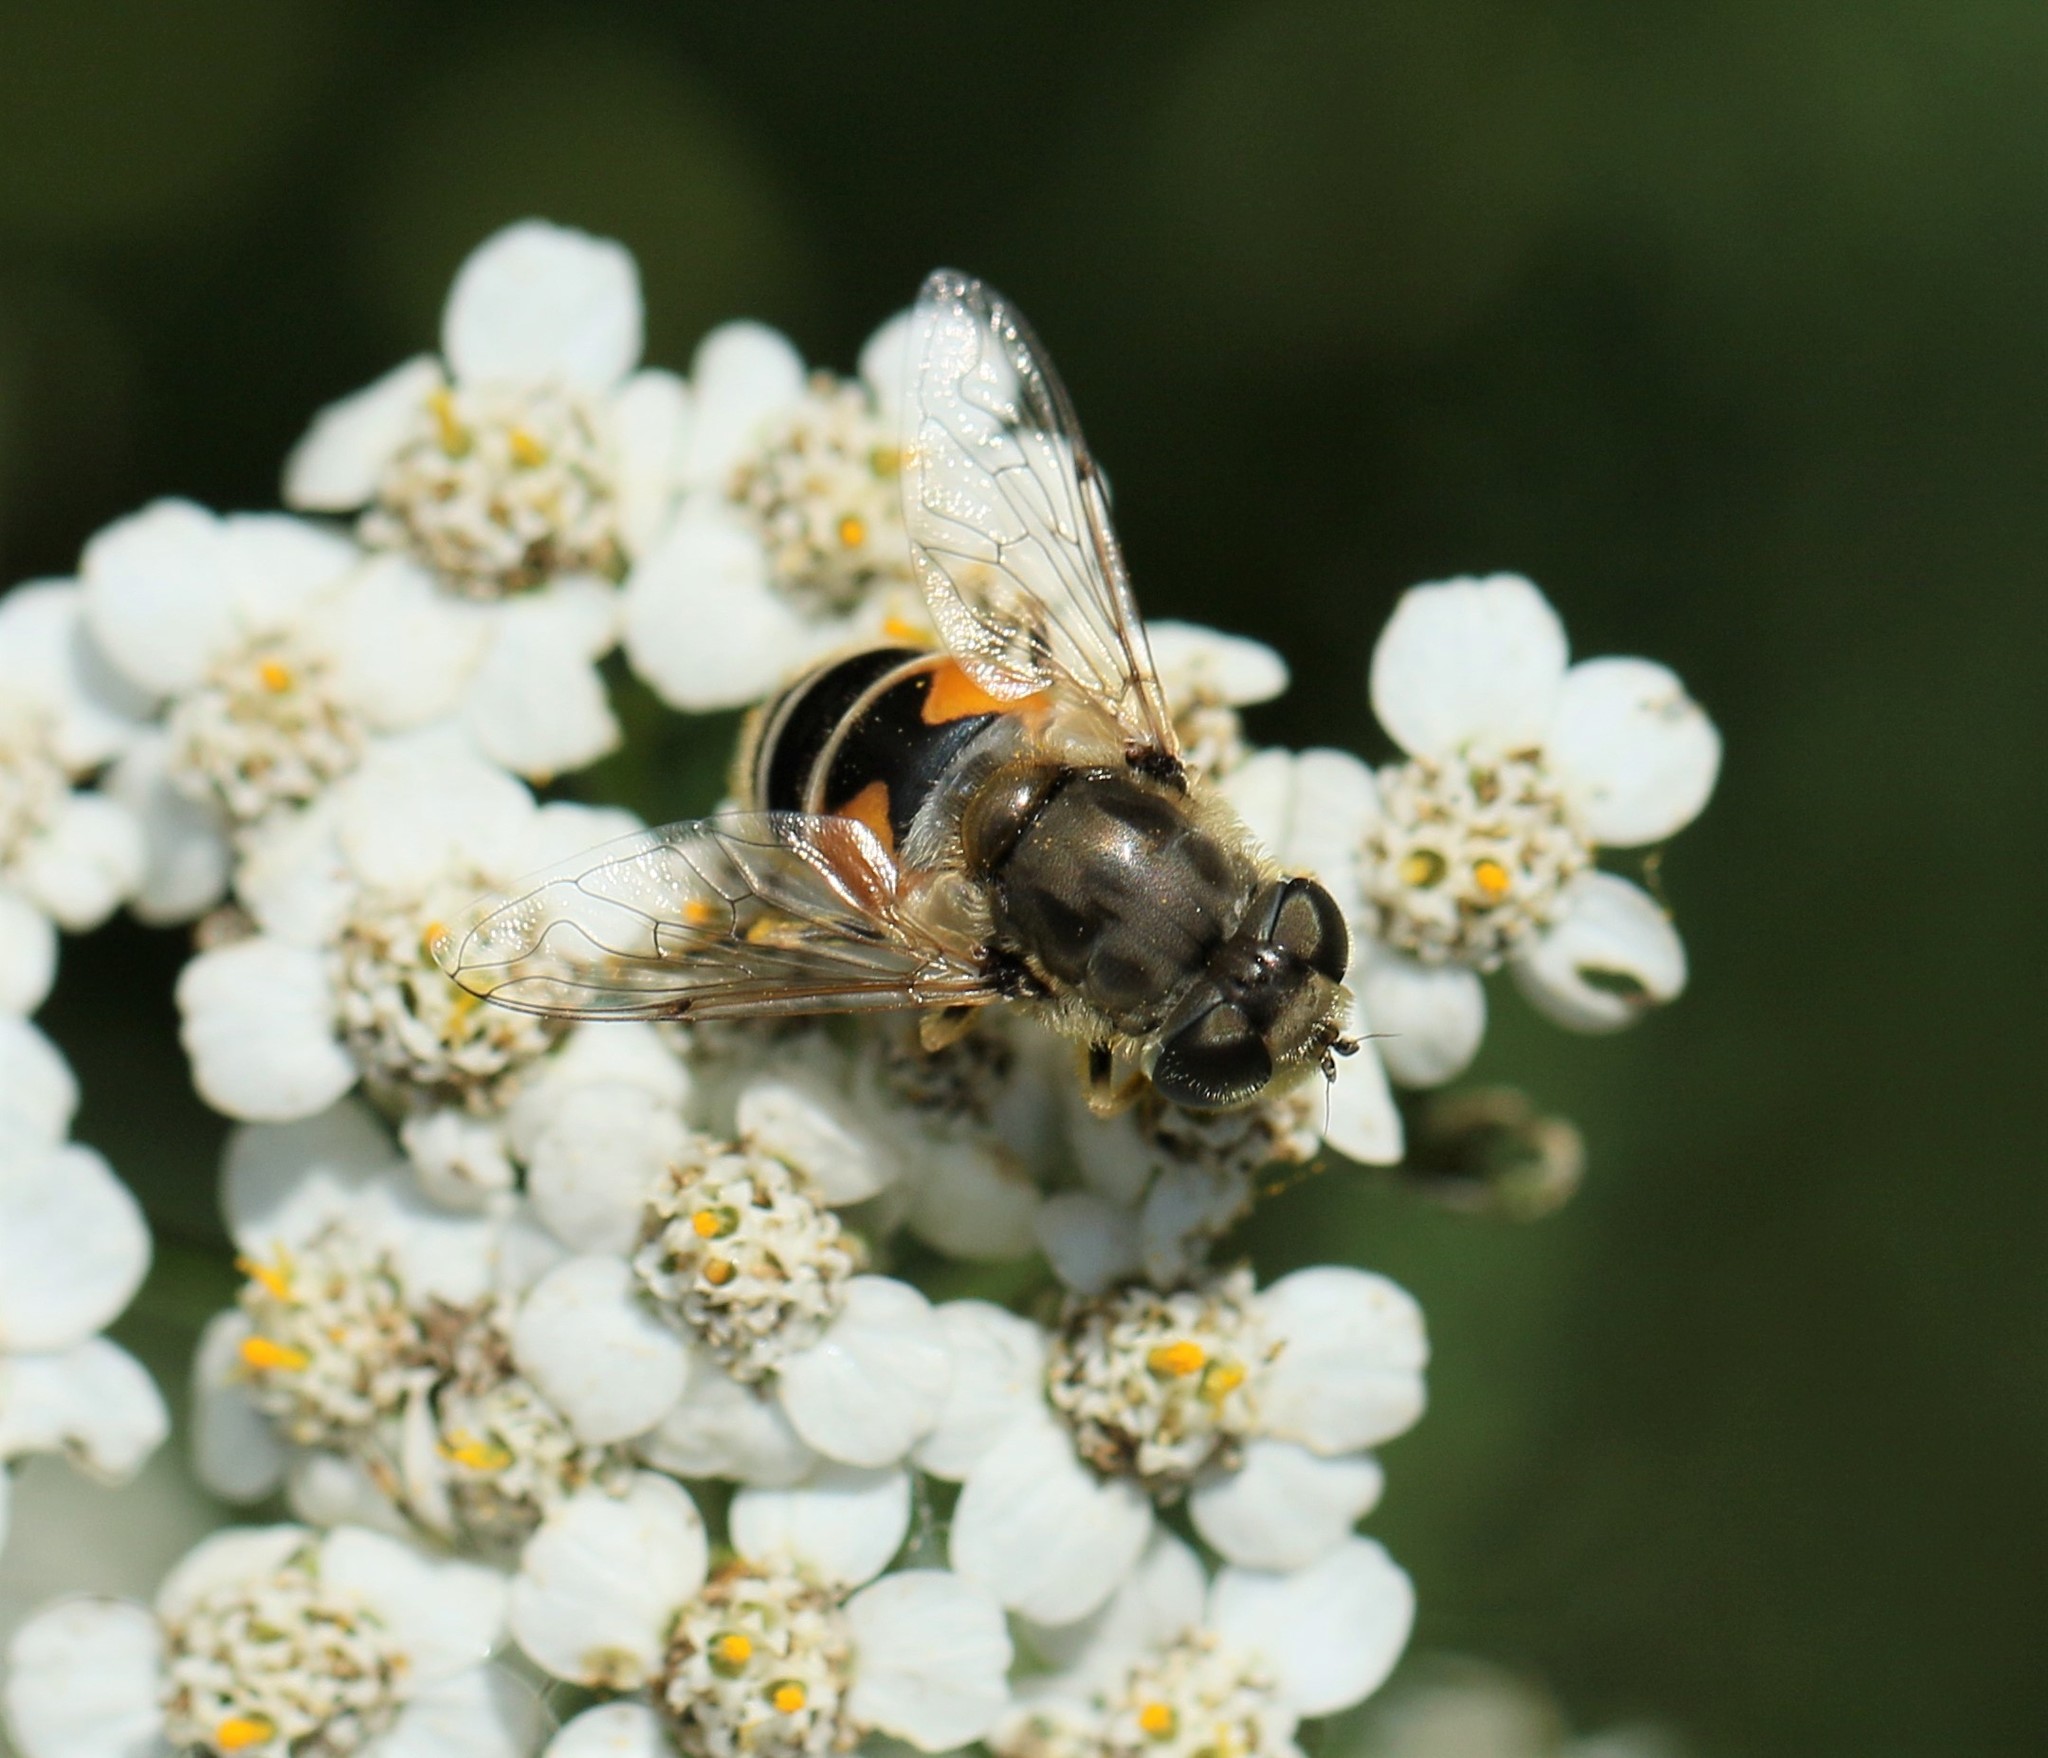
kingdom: Animalia
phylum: Arthropoda
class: Insecta
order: Diptera
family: Syrphidae
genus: Eristalis
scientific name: Eristalis arbustorum
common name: Hover fly
